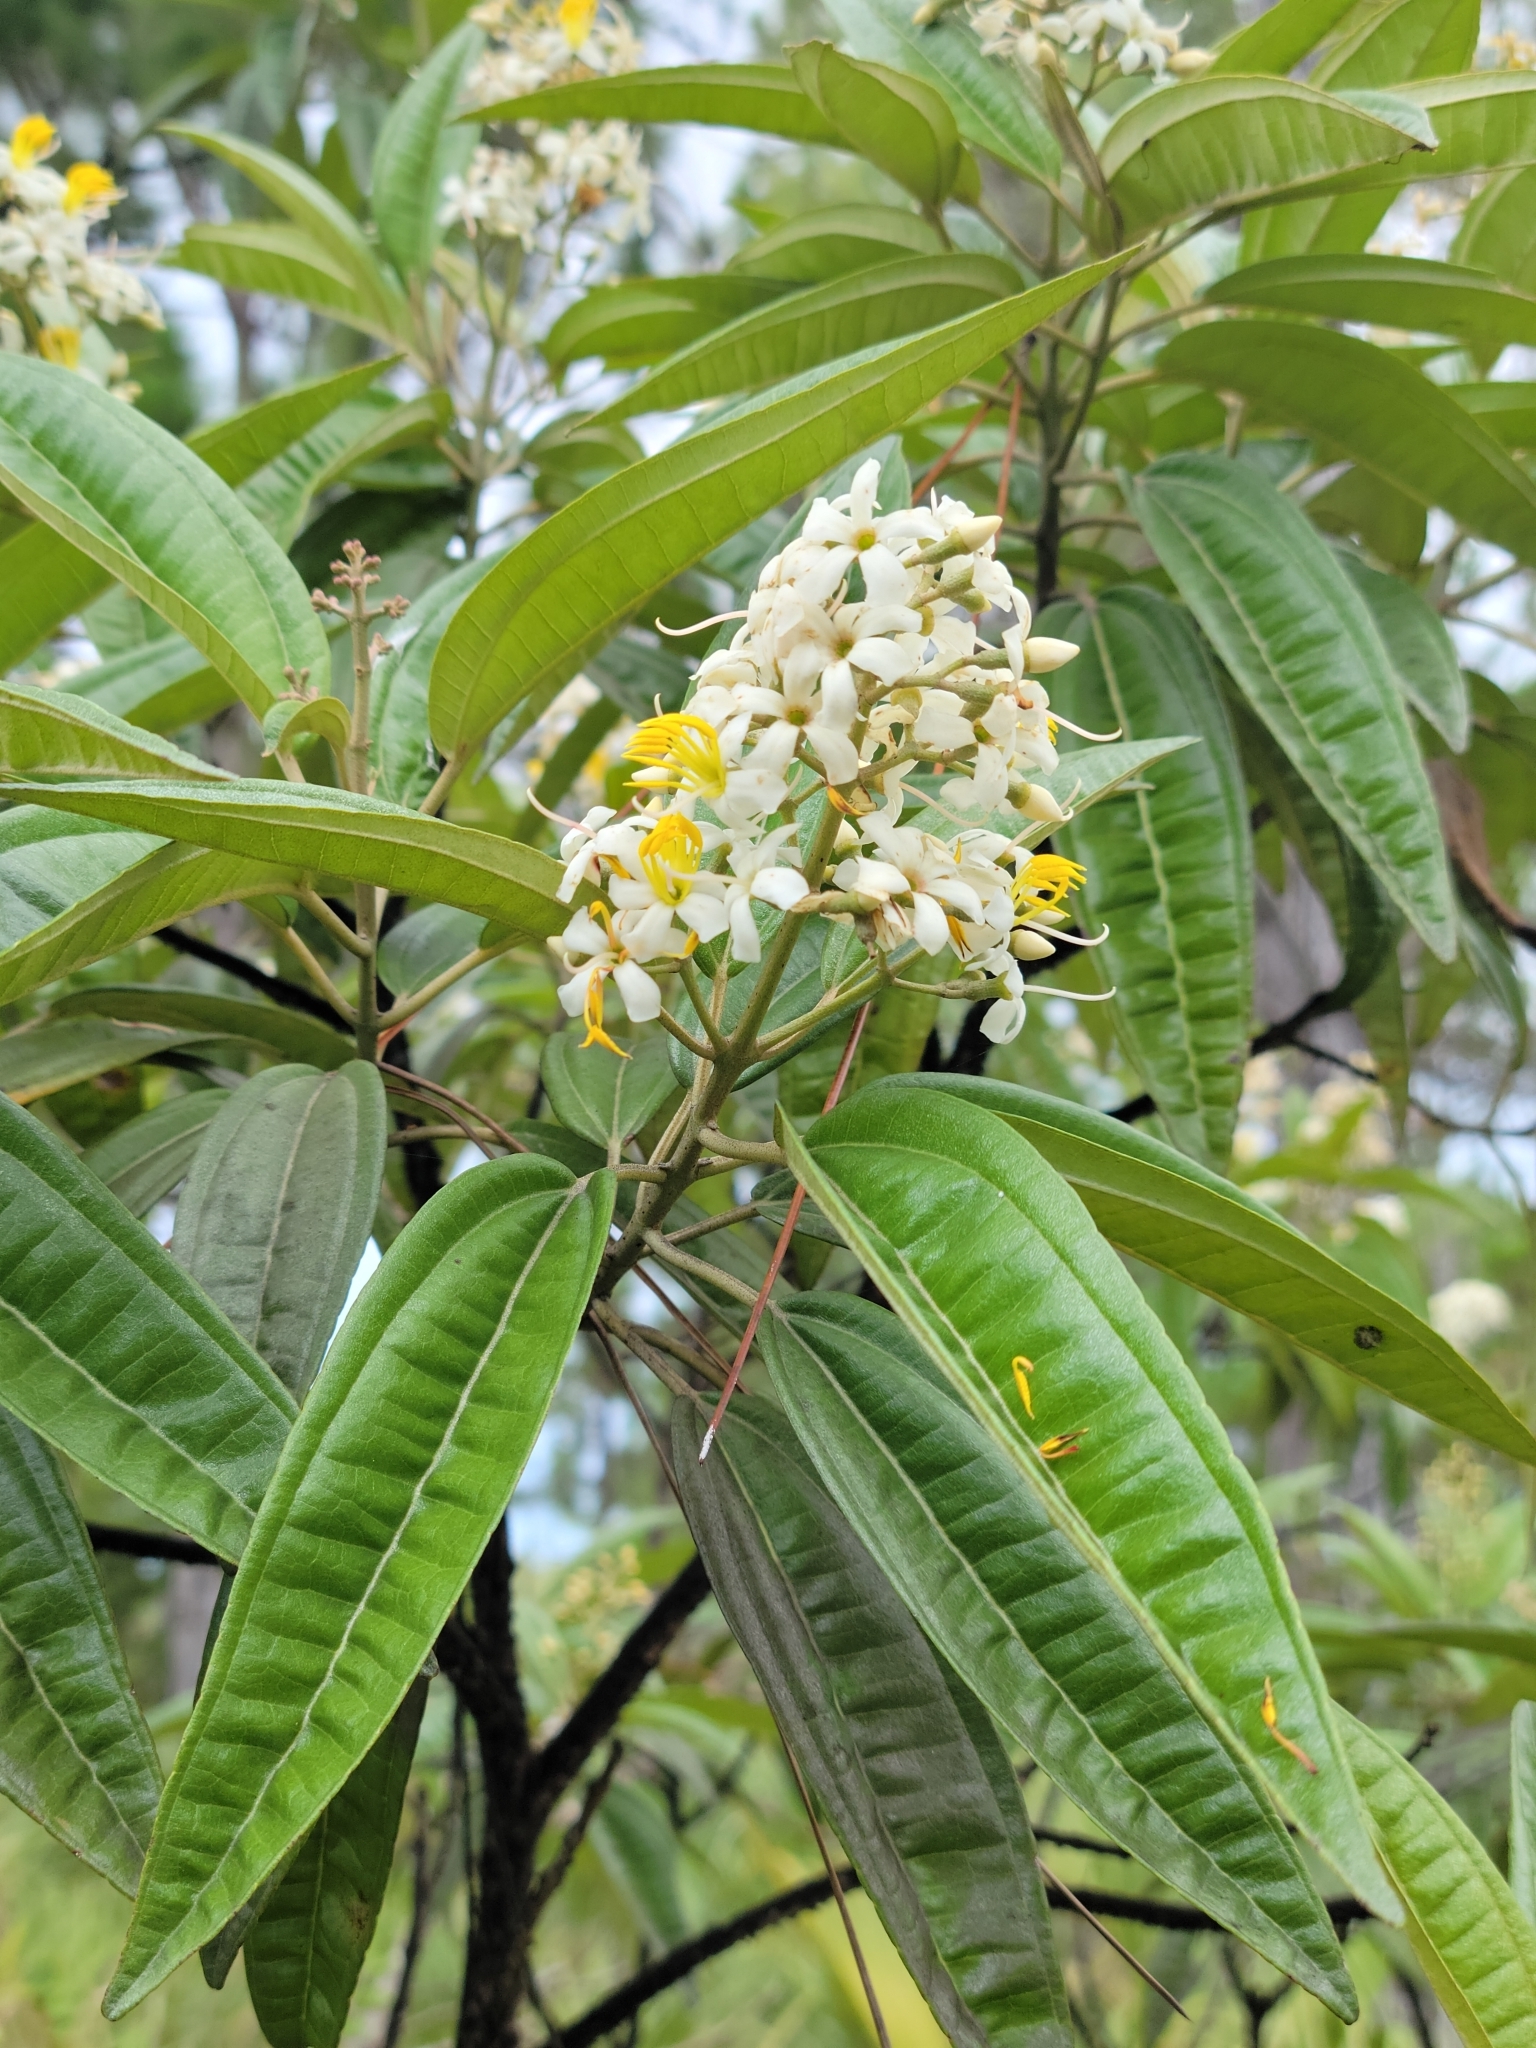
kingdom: Plantae
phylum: Tracheophyta
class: Magnoliopsida
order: Myrtales
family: Melastomataceae
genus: Miconia
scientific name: Miconia bicolor
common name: Johnnyberry
